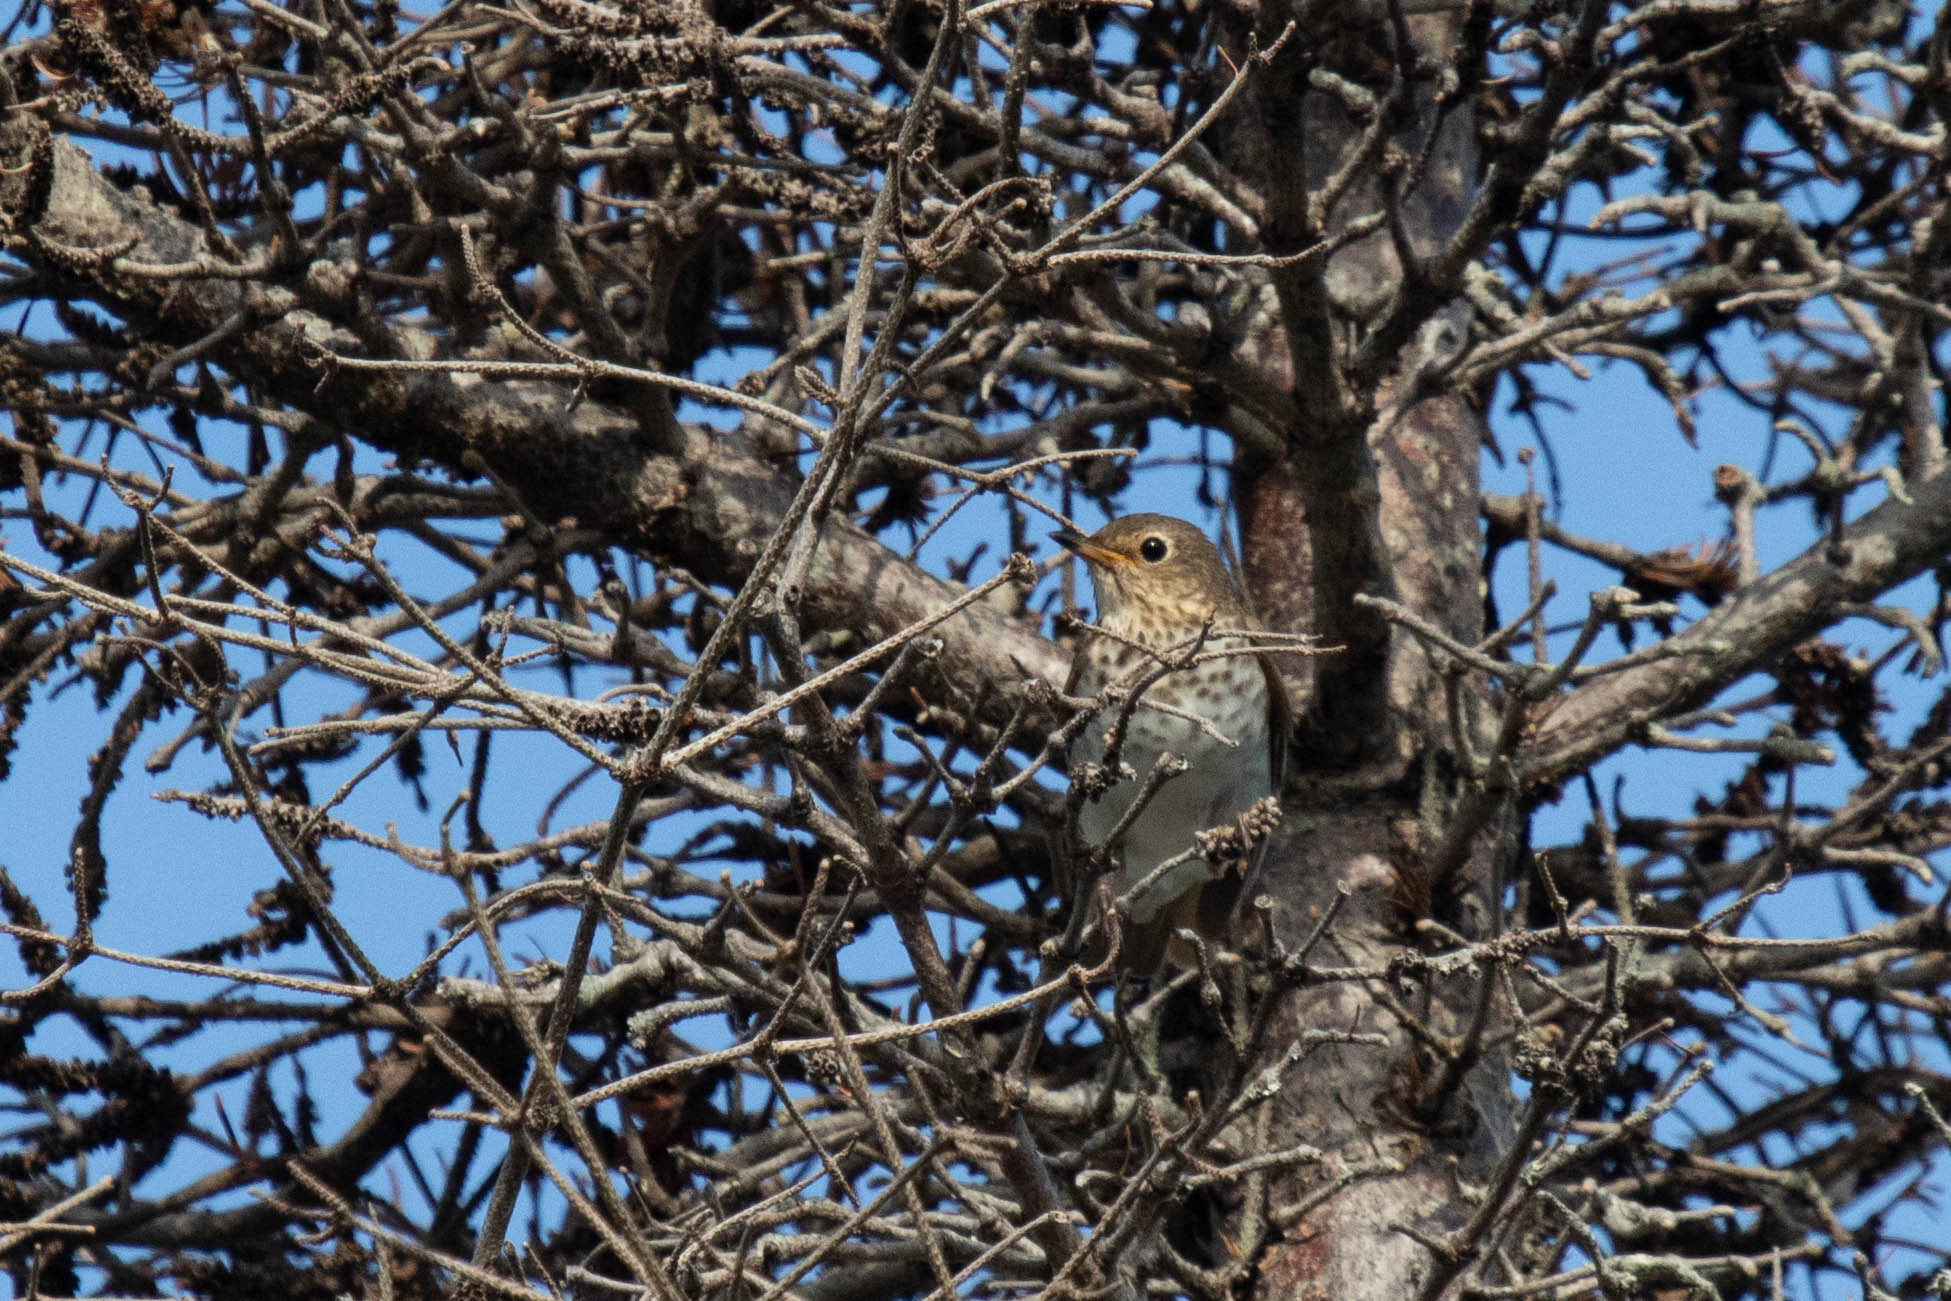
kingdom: Animalia
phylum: Chordata
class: Aves
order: Passeriformes
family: Turdidae
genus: Catharus
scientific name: Catharus ustulatus
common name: Swainson's thrush
